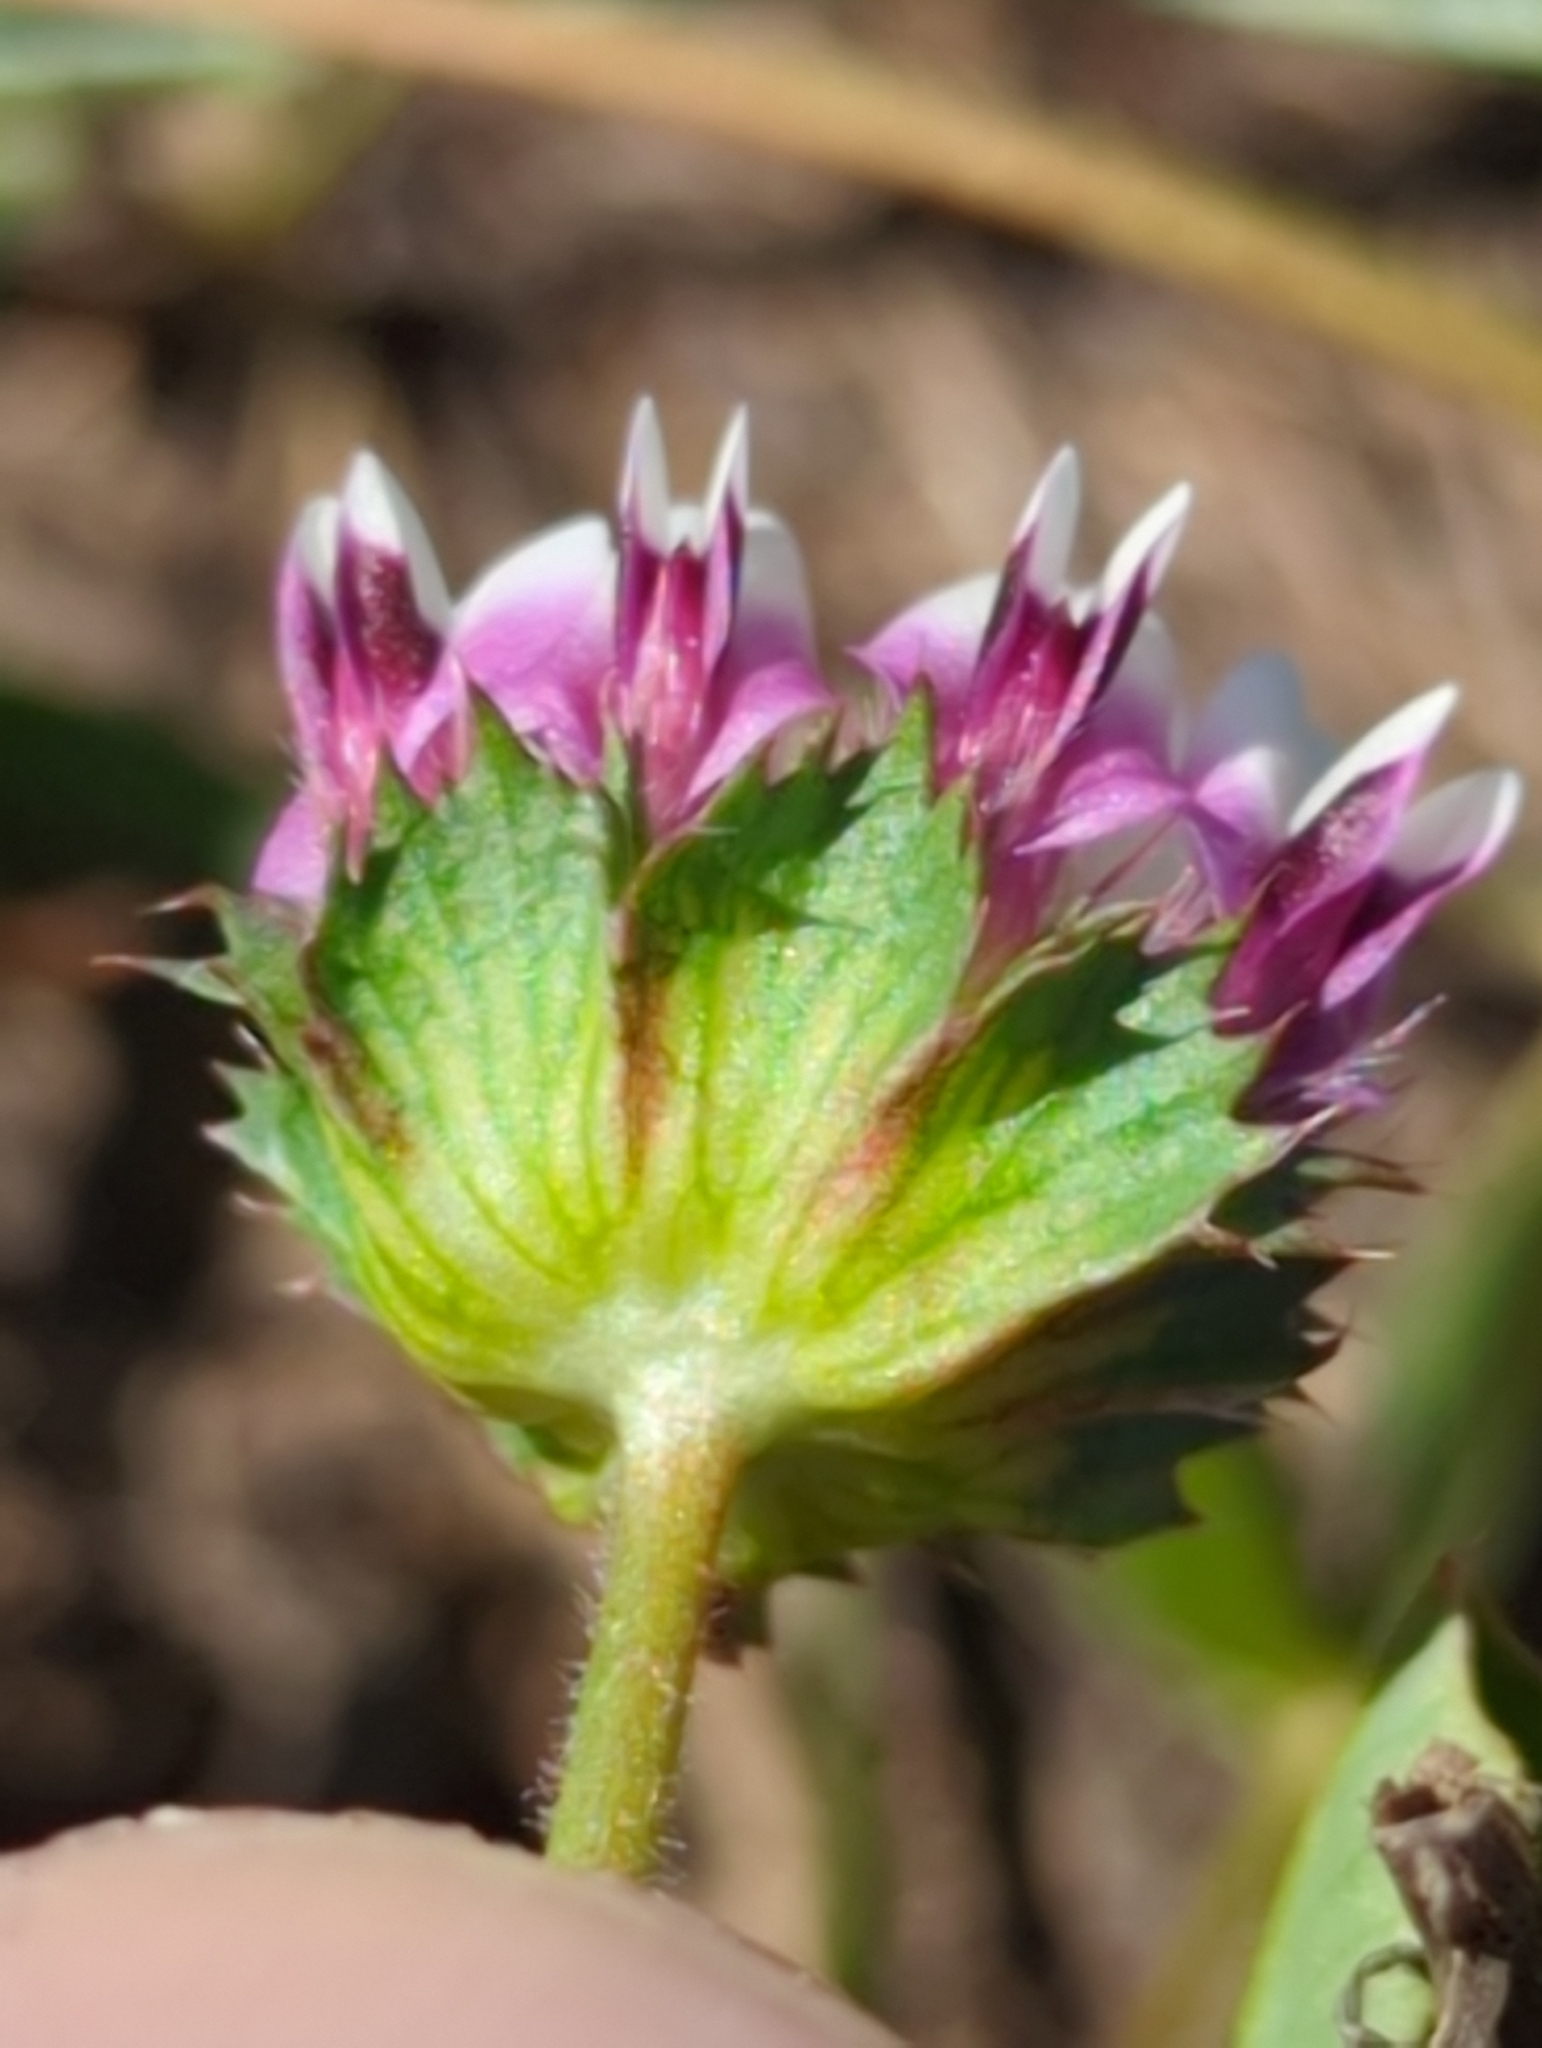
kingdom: Plantae
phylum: Tracheophyta
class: Magnoliopsida
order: Fabales
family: Fabaceae
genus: Trifolium
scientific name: Trifolium barbigerum
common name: Bearded clover
